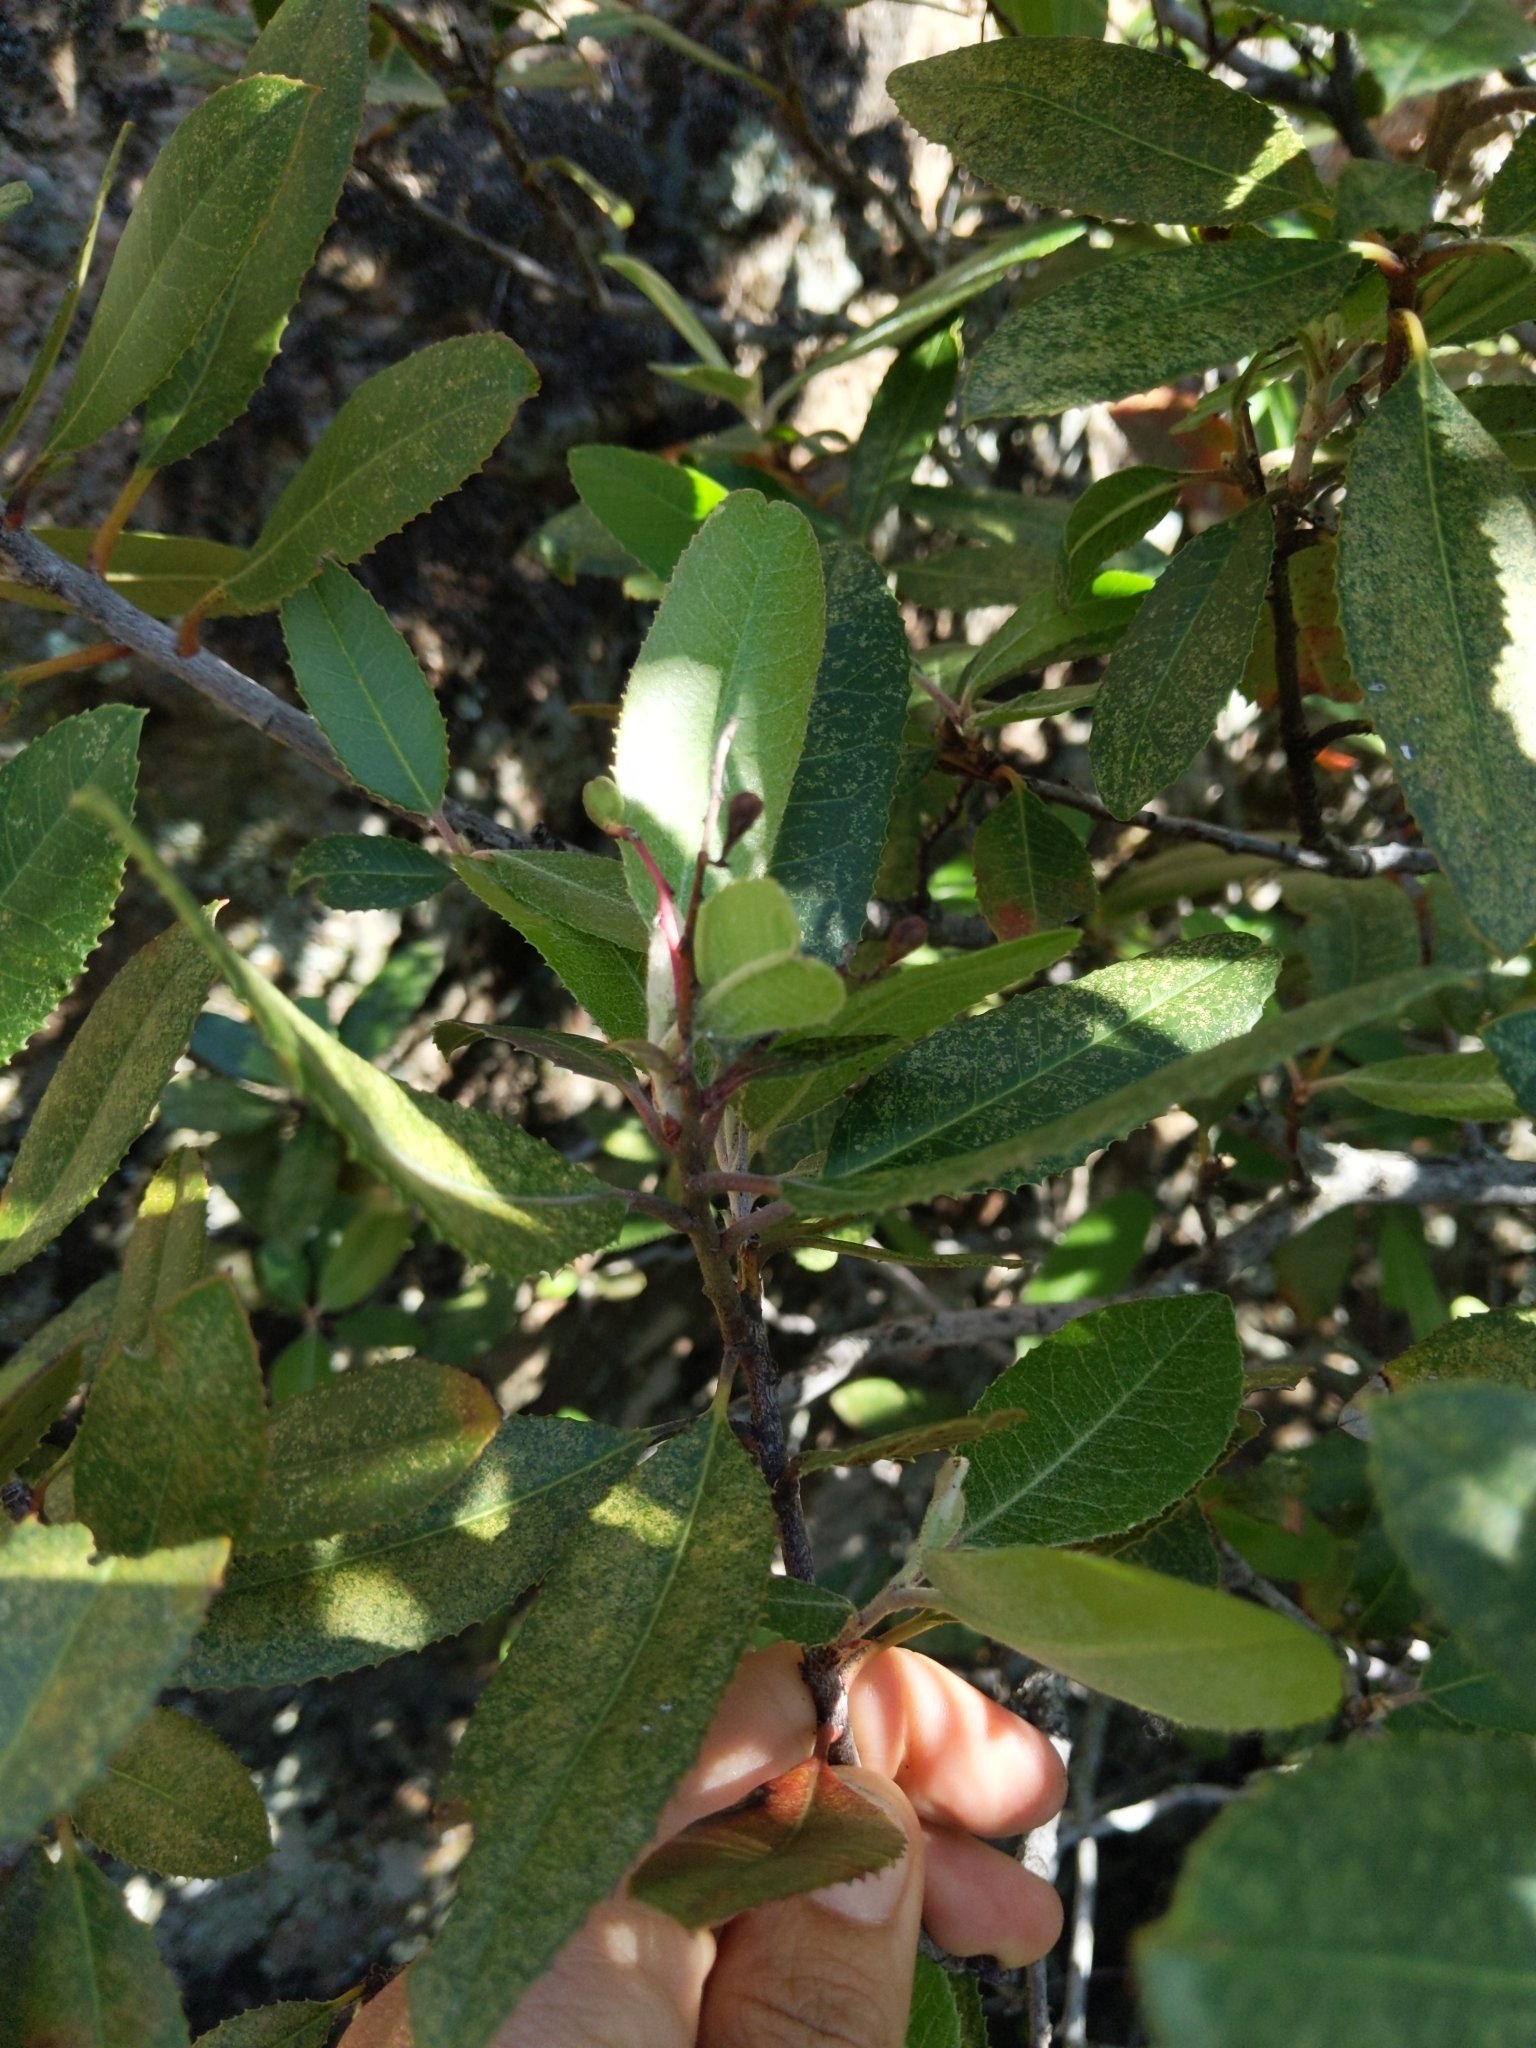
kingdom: Plantae
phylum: Tracheophyta
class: Magnoliopsida
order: Rosales
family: Rosaceae
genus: Heteromeles
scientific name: Heteromeles arbutifolia
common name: California-holly
